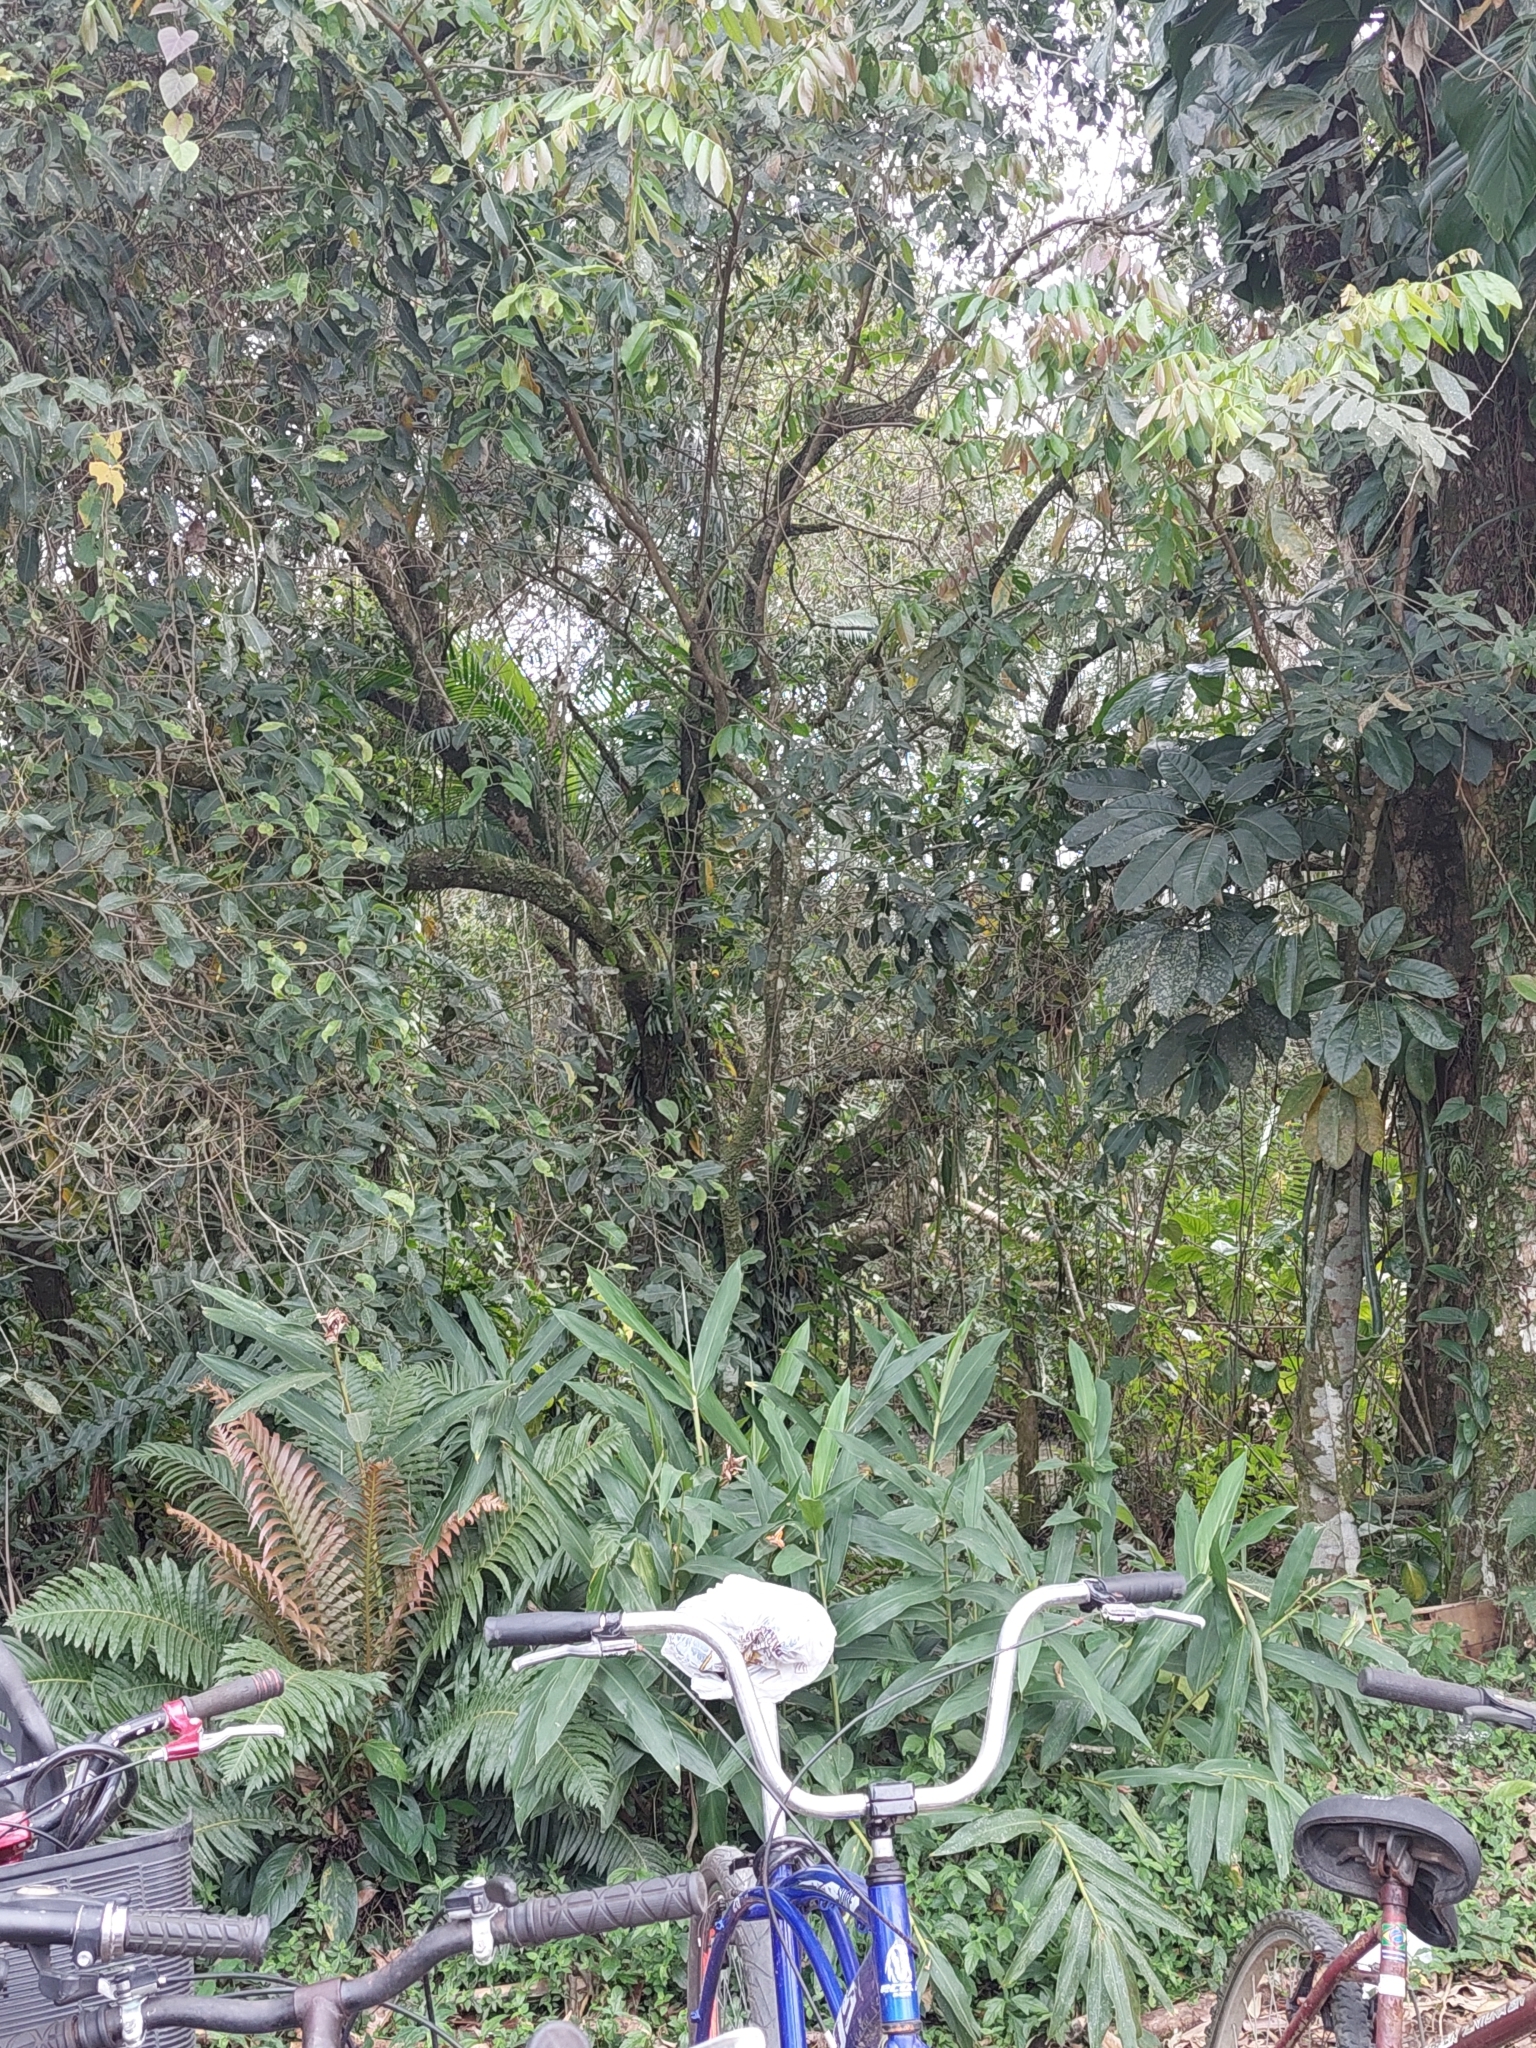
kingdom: Plantae
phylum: Tracheophyta
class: Liliopsida
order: Zingiberales
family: Zingiberaceae
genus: Hedychium
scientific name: Hedychium coronarium
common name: White garland-lily
